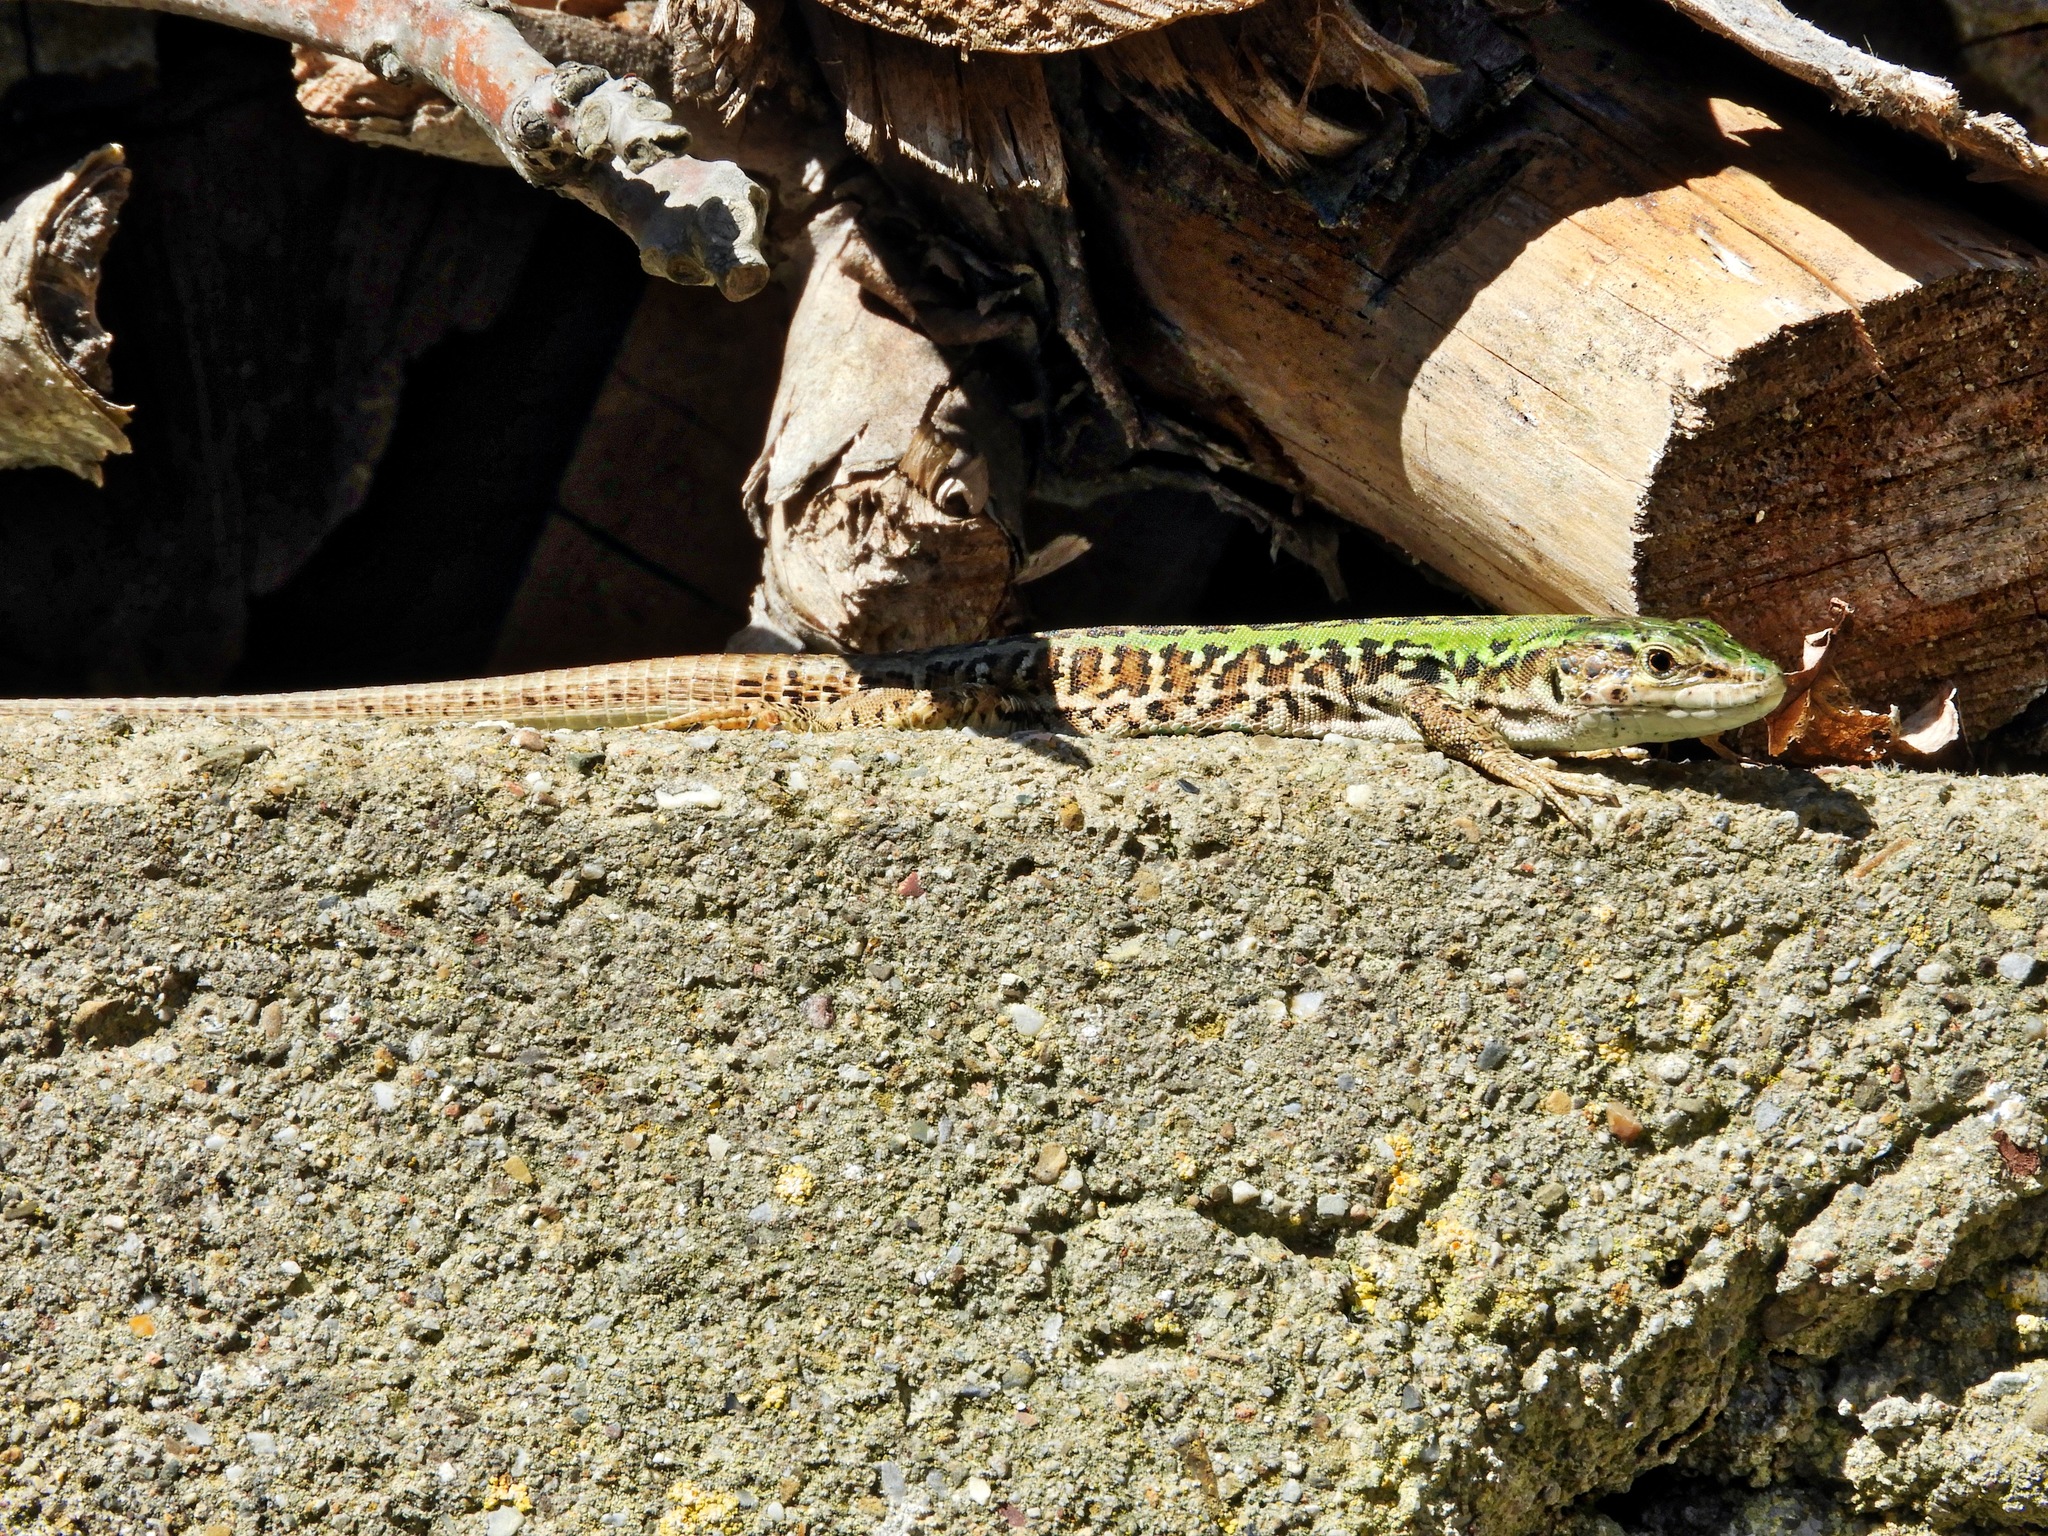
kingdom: Animalia
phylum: Chordata
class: Squamata
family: Lacertidae
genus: Podarcis
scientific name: Podarcis siculus
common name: Italian wall lizard
